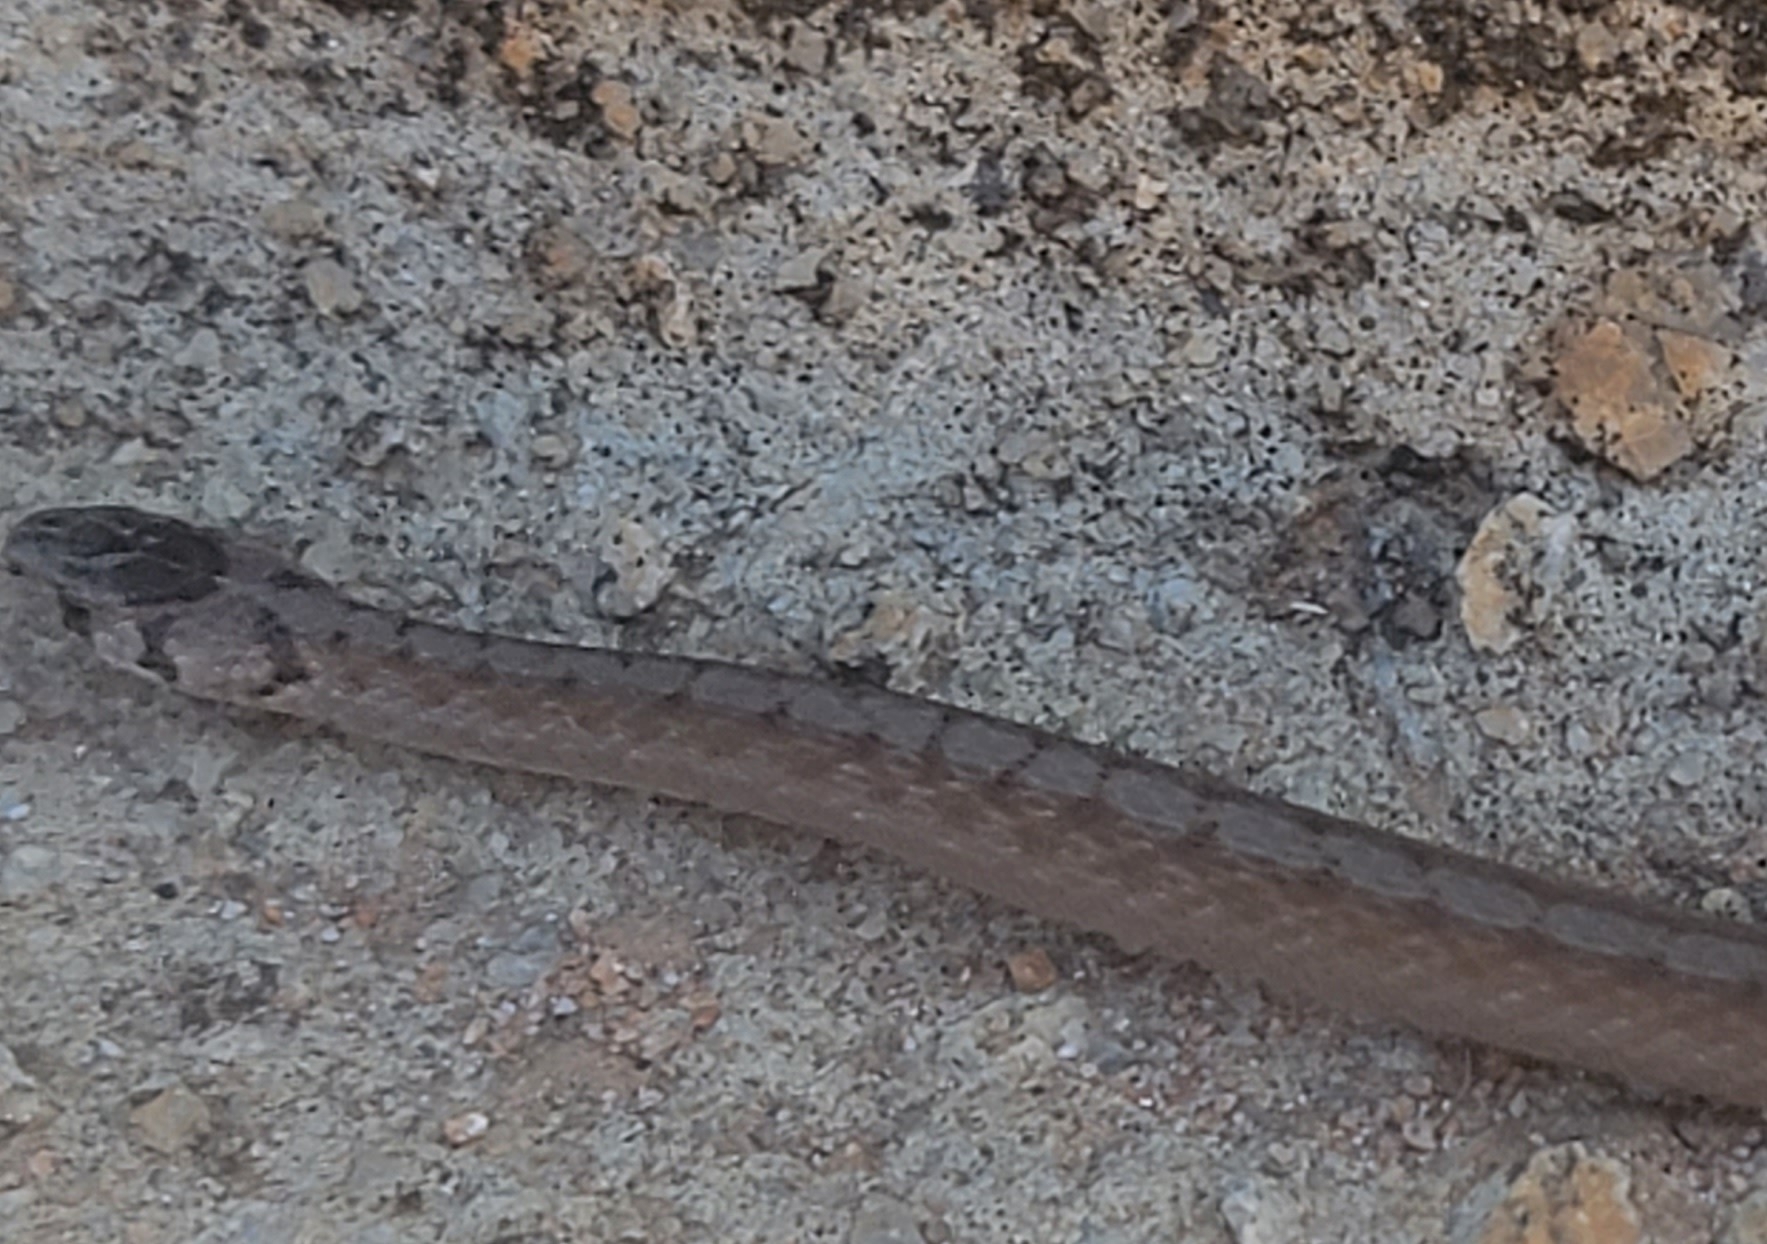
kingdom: Animalia
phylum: Chordata
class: Squamata
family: Colubridae
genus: Storeria
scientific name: Storeria dekayi
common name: (dekay’s) brown snake
